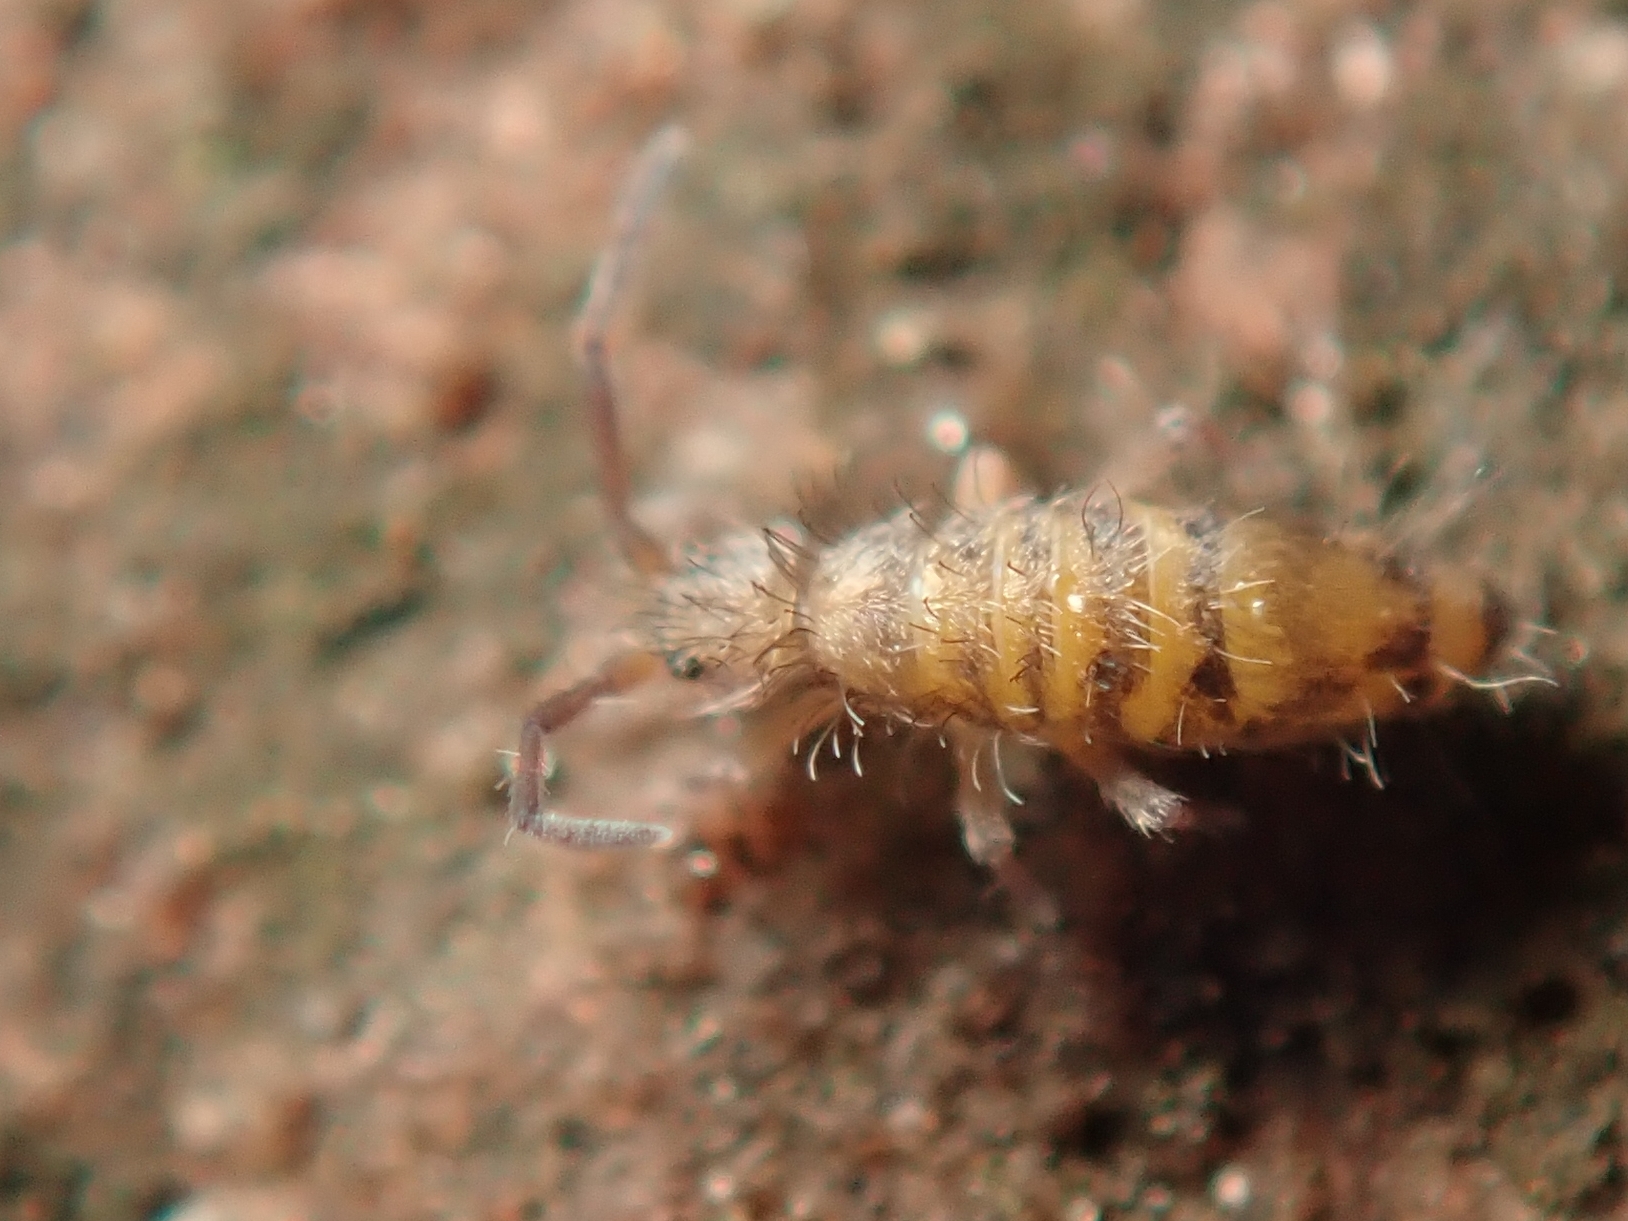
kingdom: Animalia
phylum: Arthropoda
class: Collembola
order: Entomobryomorpha
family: Entomobryidae
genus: Entomobrya
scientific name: Entomobrya multifasciata
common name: Springtail
